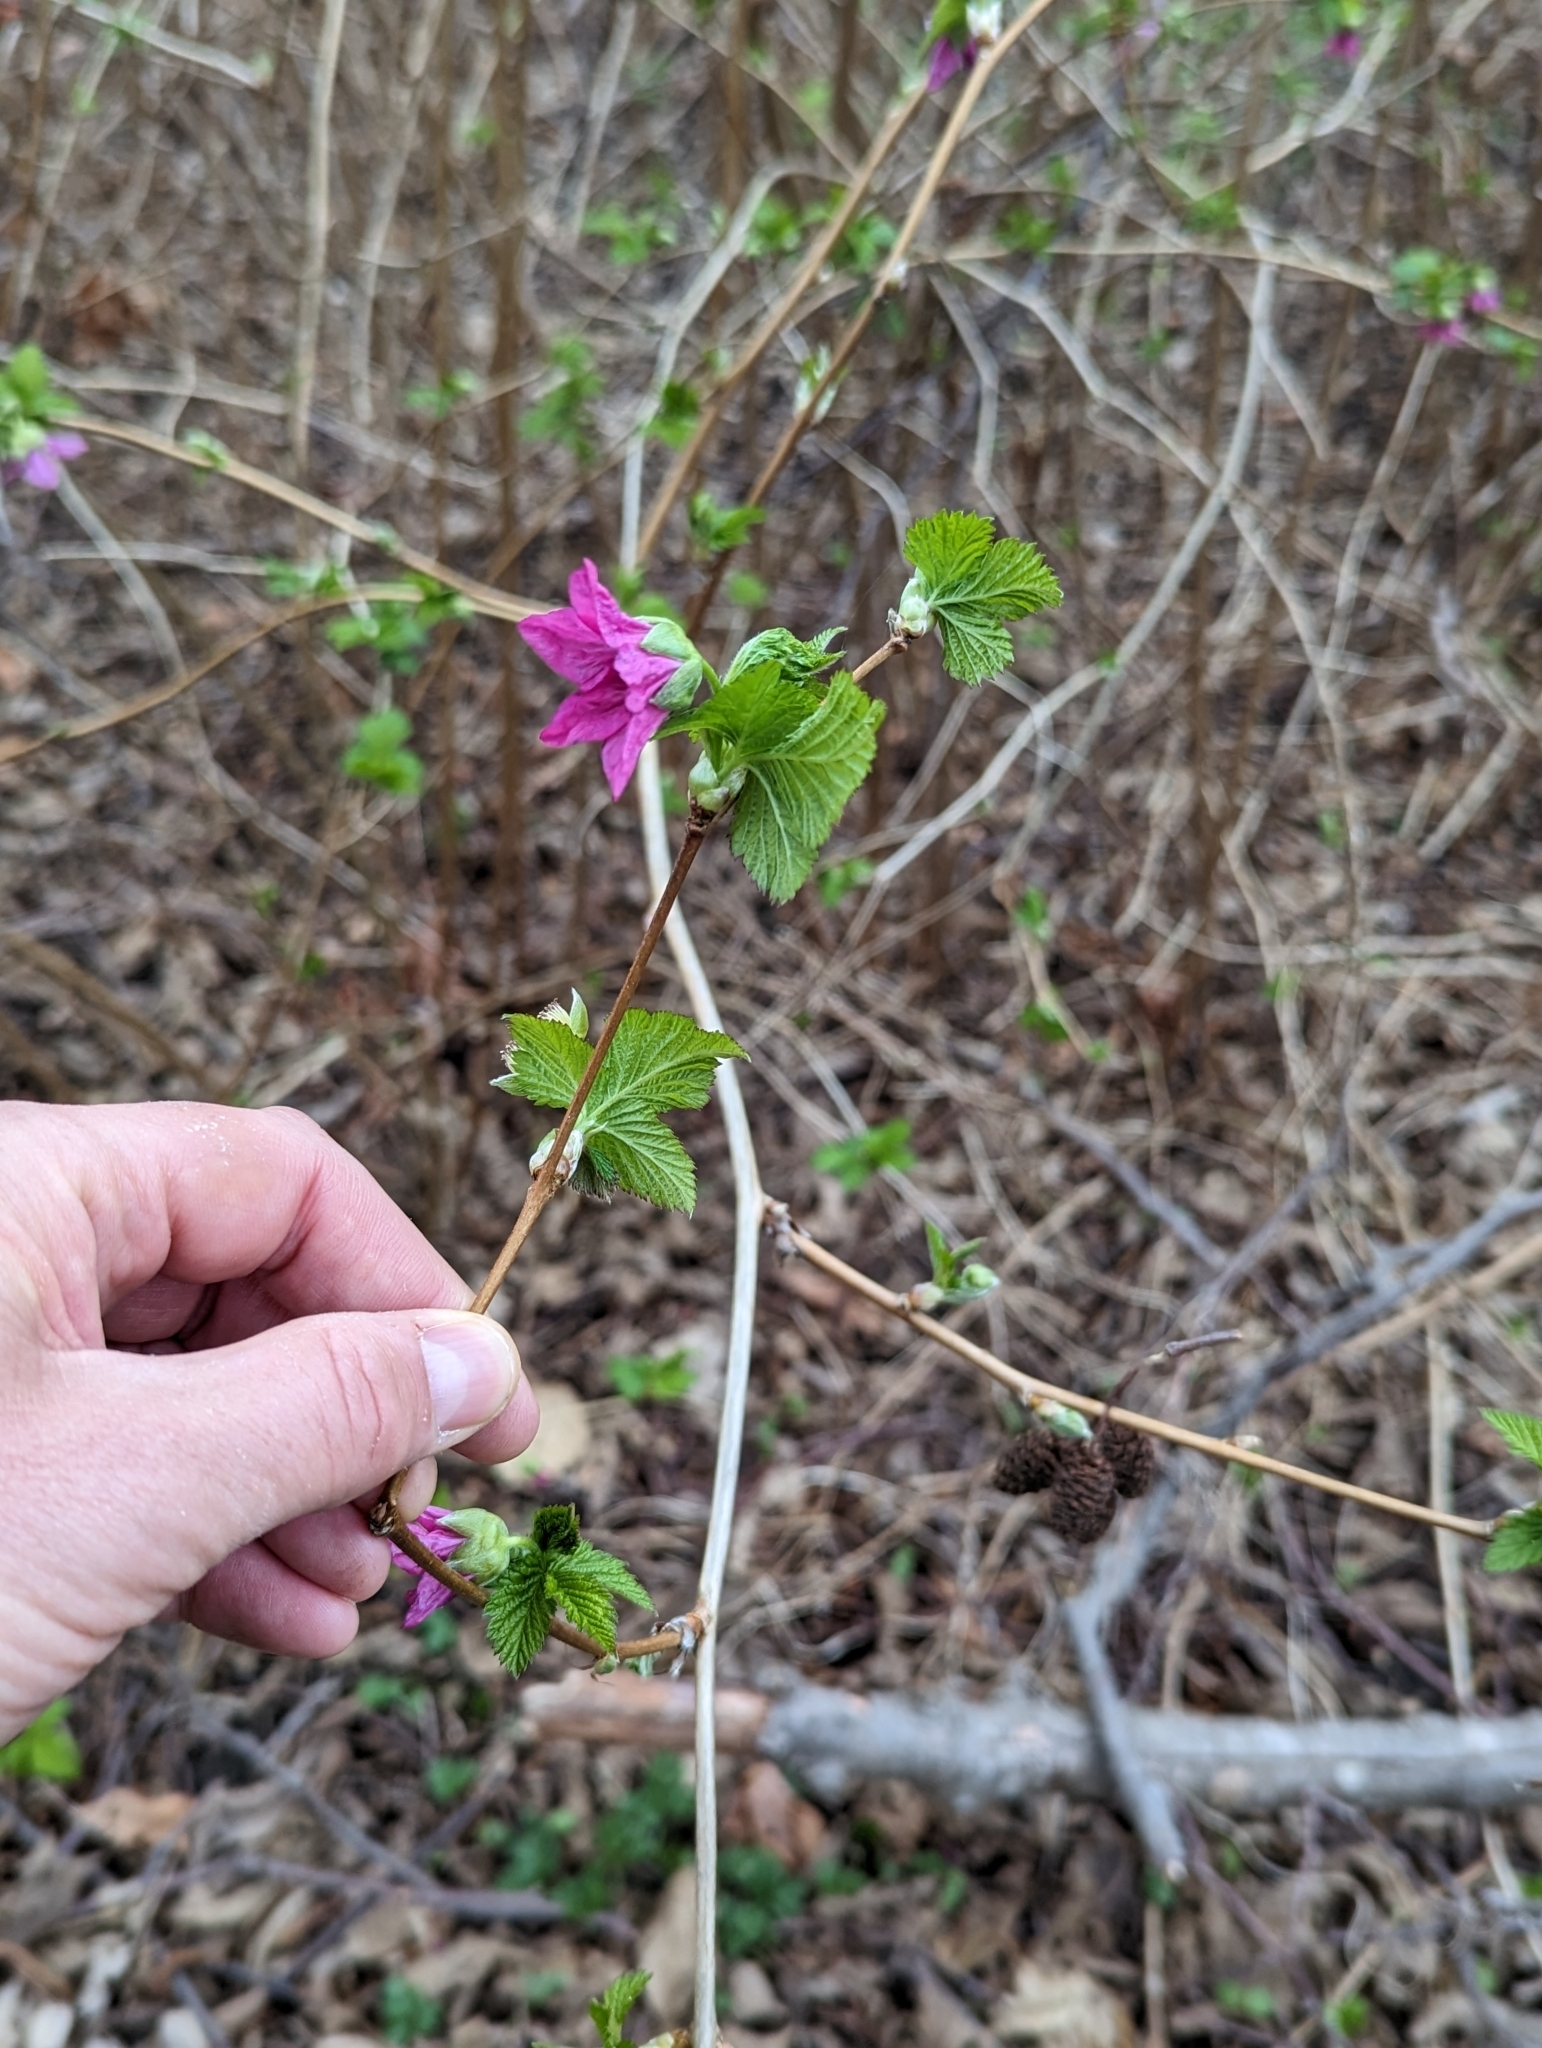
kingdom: Plantae
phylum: Tracheophyta
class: Magnoliopsida
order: Rosales
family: Rosaceae
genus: Rubus
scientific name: Rubus spectabilis
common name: Salmonberry
